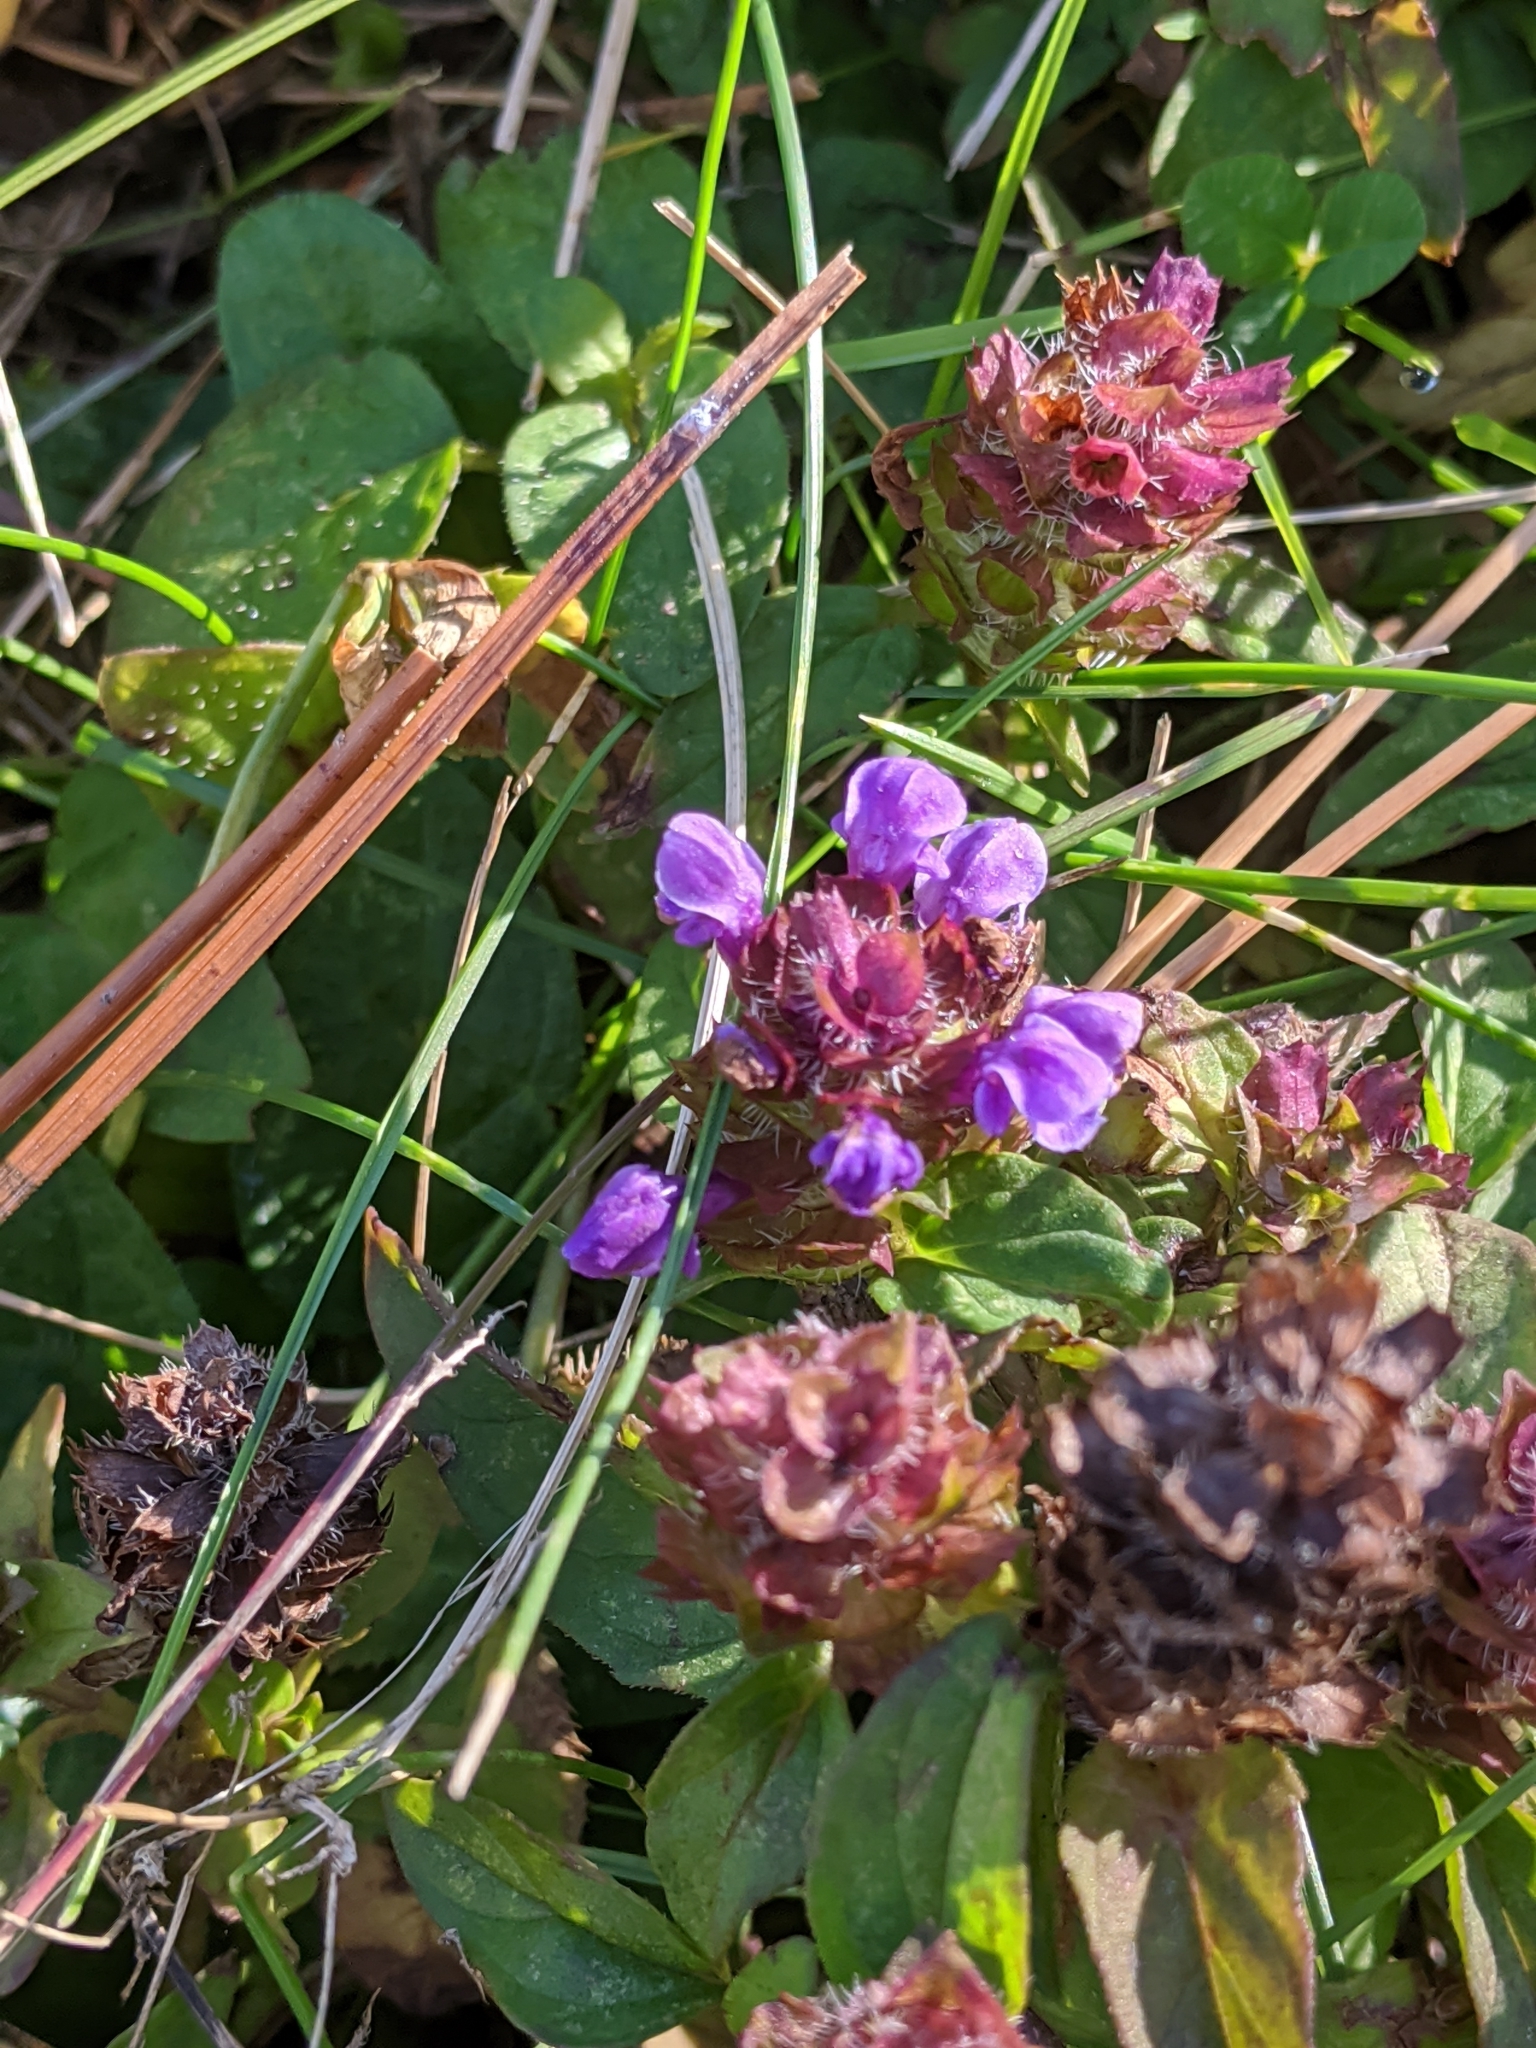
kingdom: Plantae
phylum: Tracheophyta
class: Magnoliopsida
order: Lamiales
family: Lamiaceae
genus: Prunella
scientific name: Prunella vulgaris
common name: Heal-all
